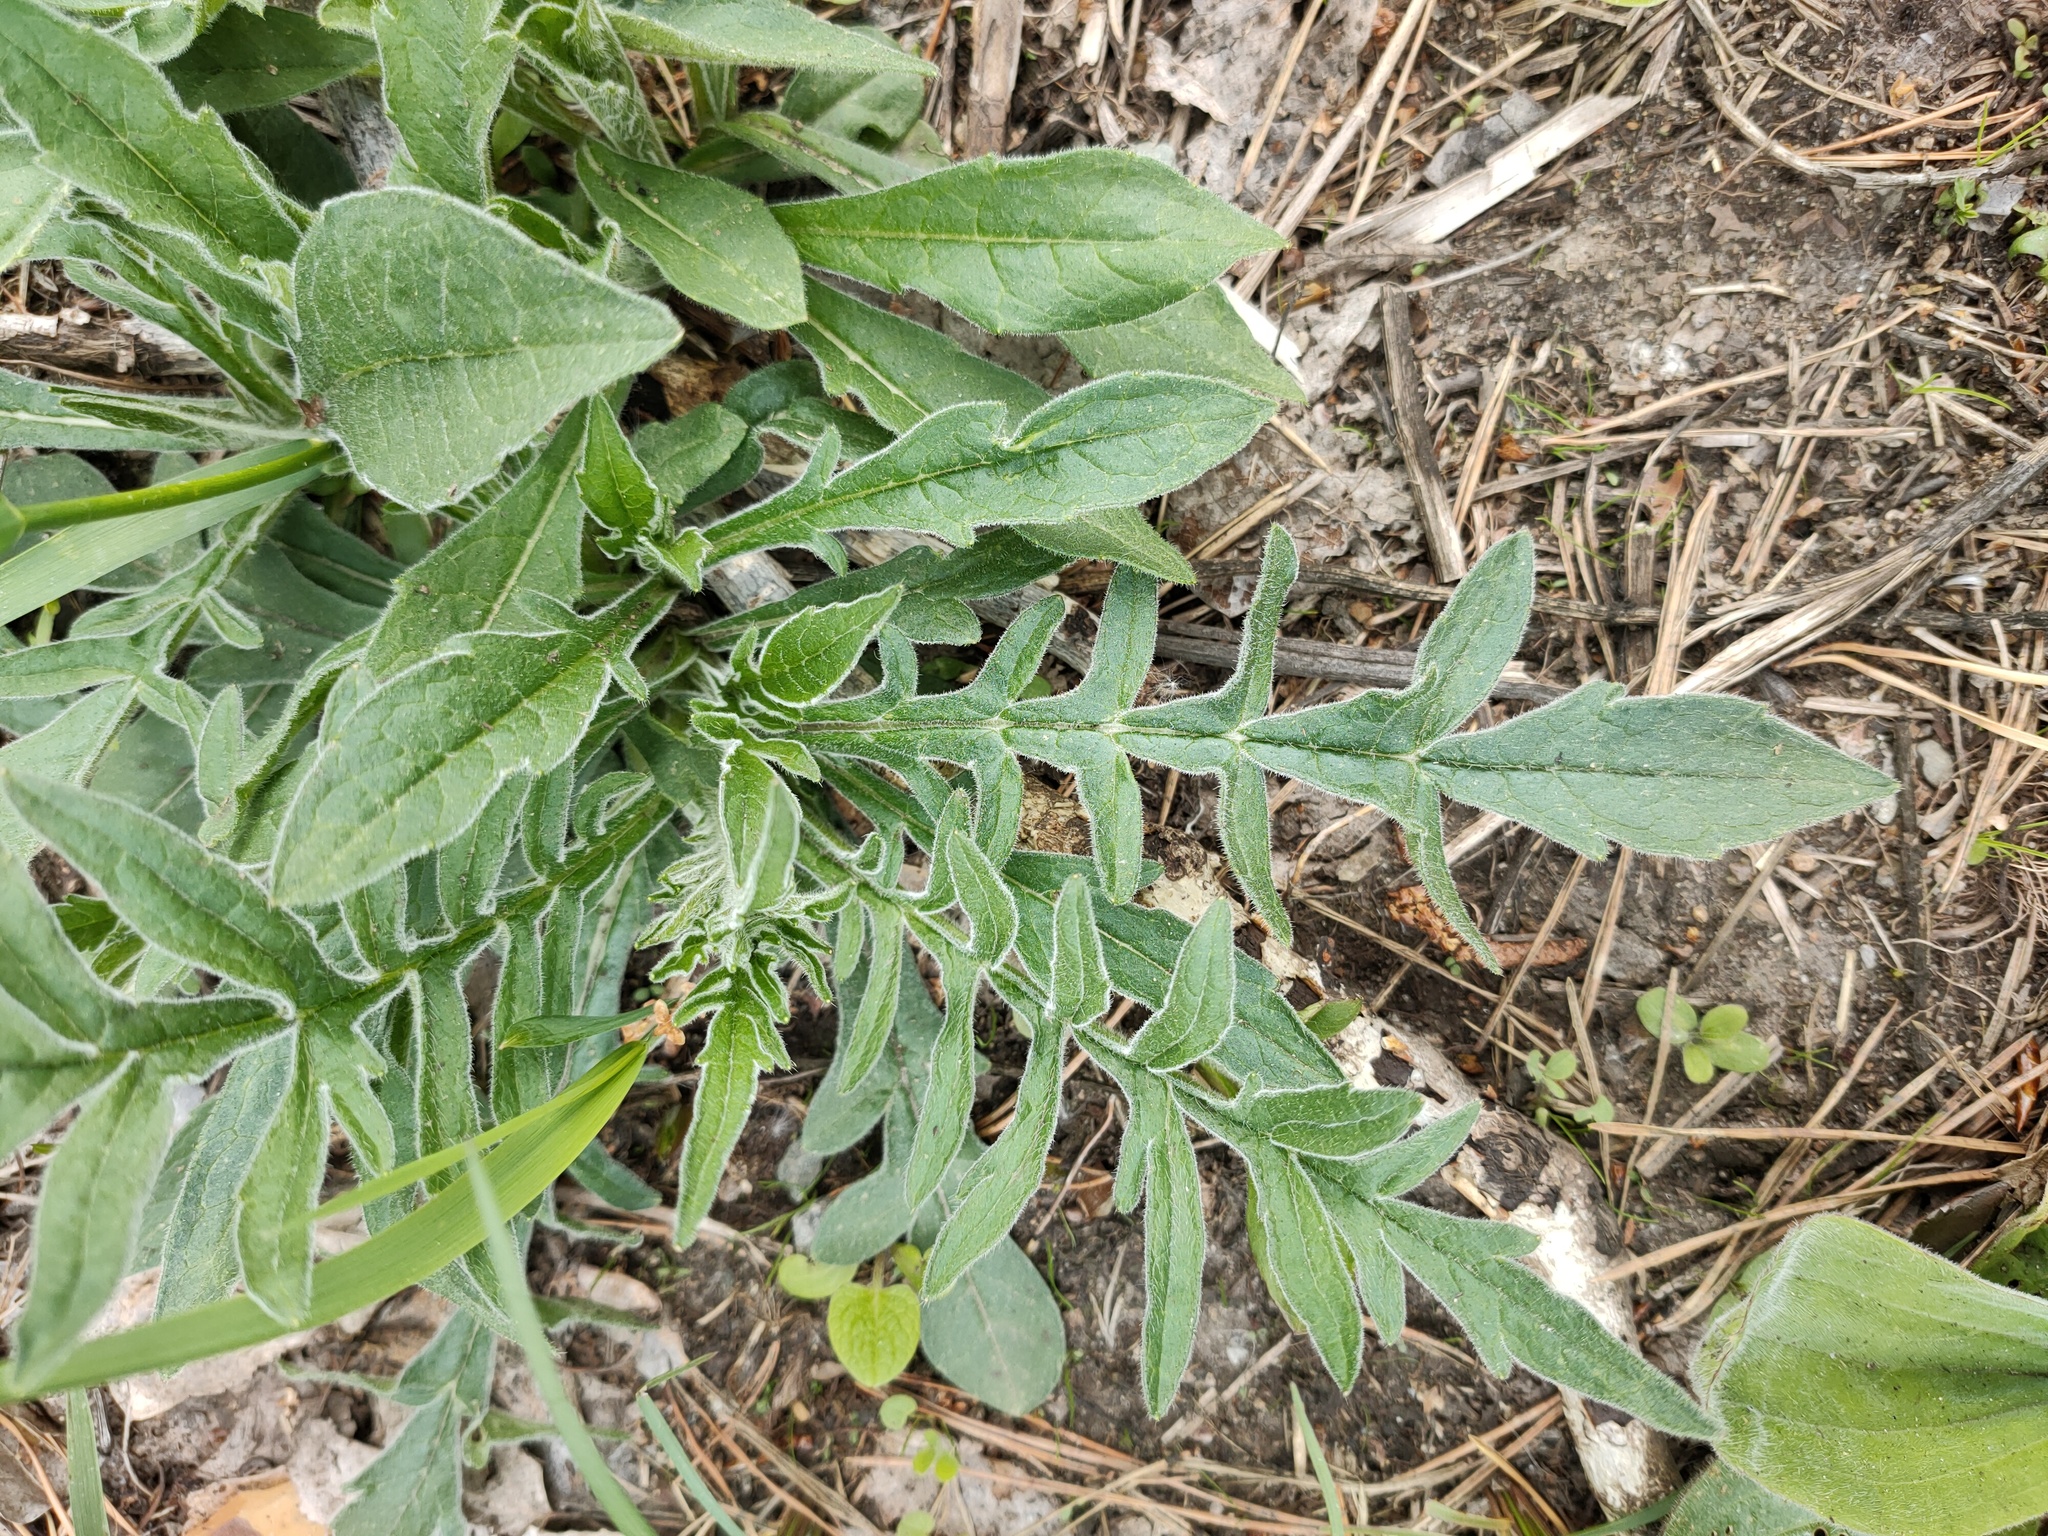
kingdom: Plantae
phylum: Tracheophyta
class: Magnoliopsida
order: Dipsacales
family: Caprifoliaceae
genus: Knautia
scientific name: Knautia arvensis
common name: Field scabiosa
